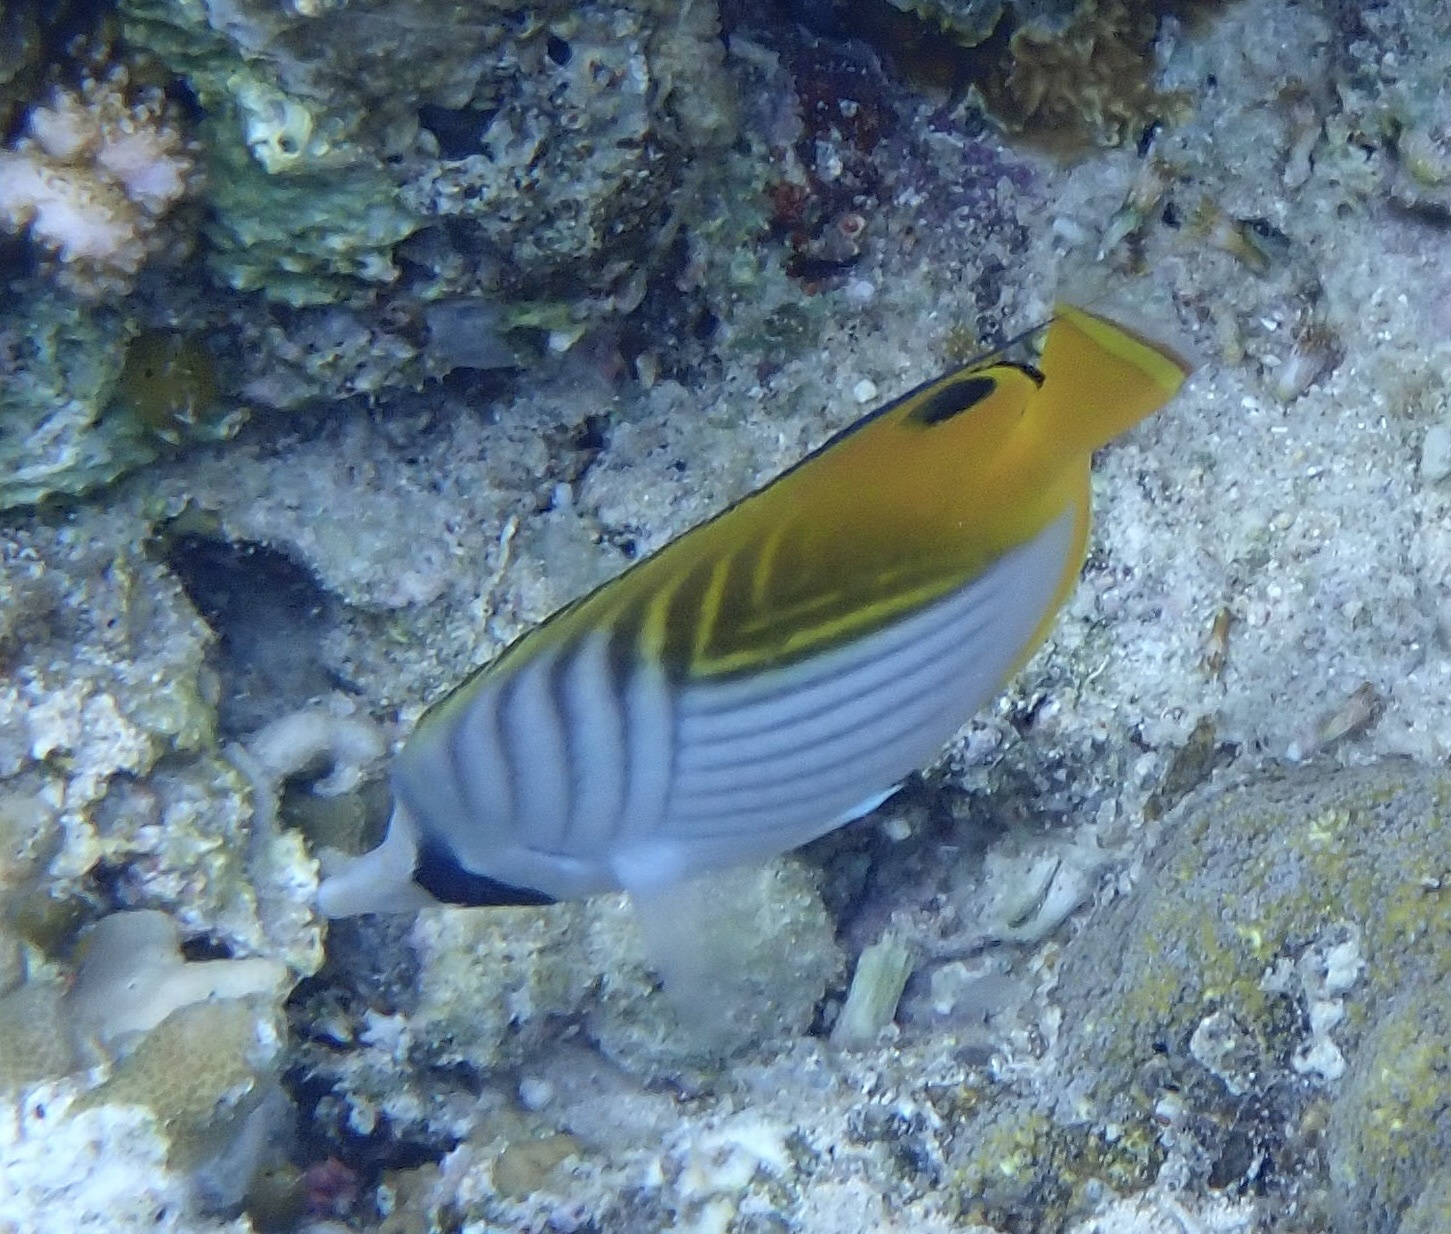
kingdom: Animalia
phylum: Chordata
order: Perciformes
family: Chaetodontidae
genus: Chaetodon
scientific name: Chaetodon auriga
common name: Threadfin butterflyfish
